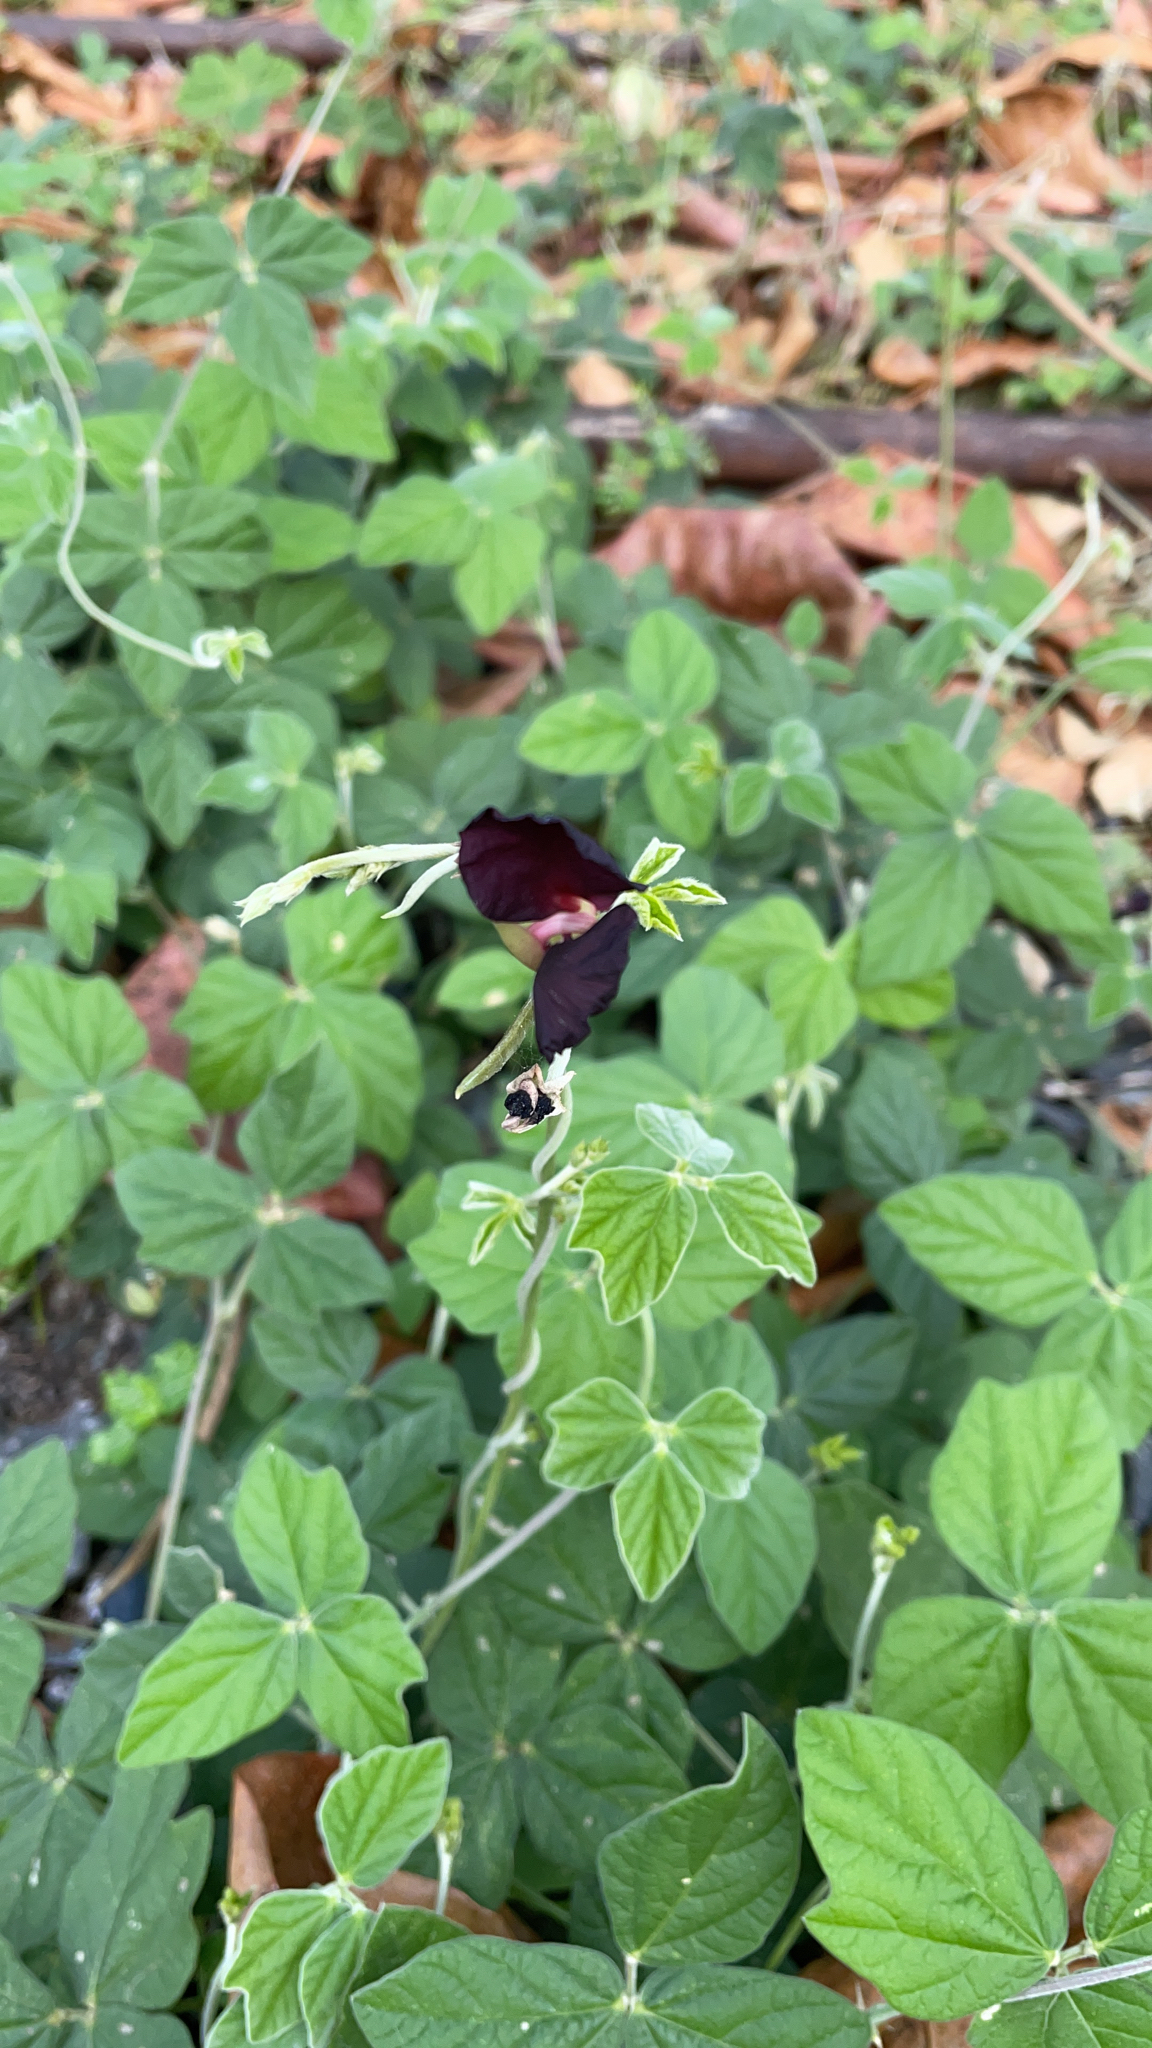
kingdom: Plantae
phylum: Tracheophyta
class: Magnoliopsida
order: Fabales
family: Fabaceae
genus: Macroptilium
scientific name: Macroptilium atropurpureum
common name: Purple bushbean
